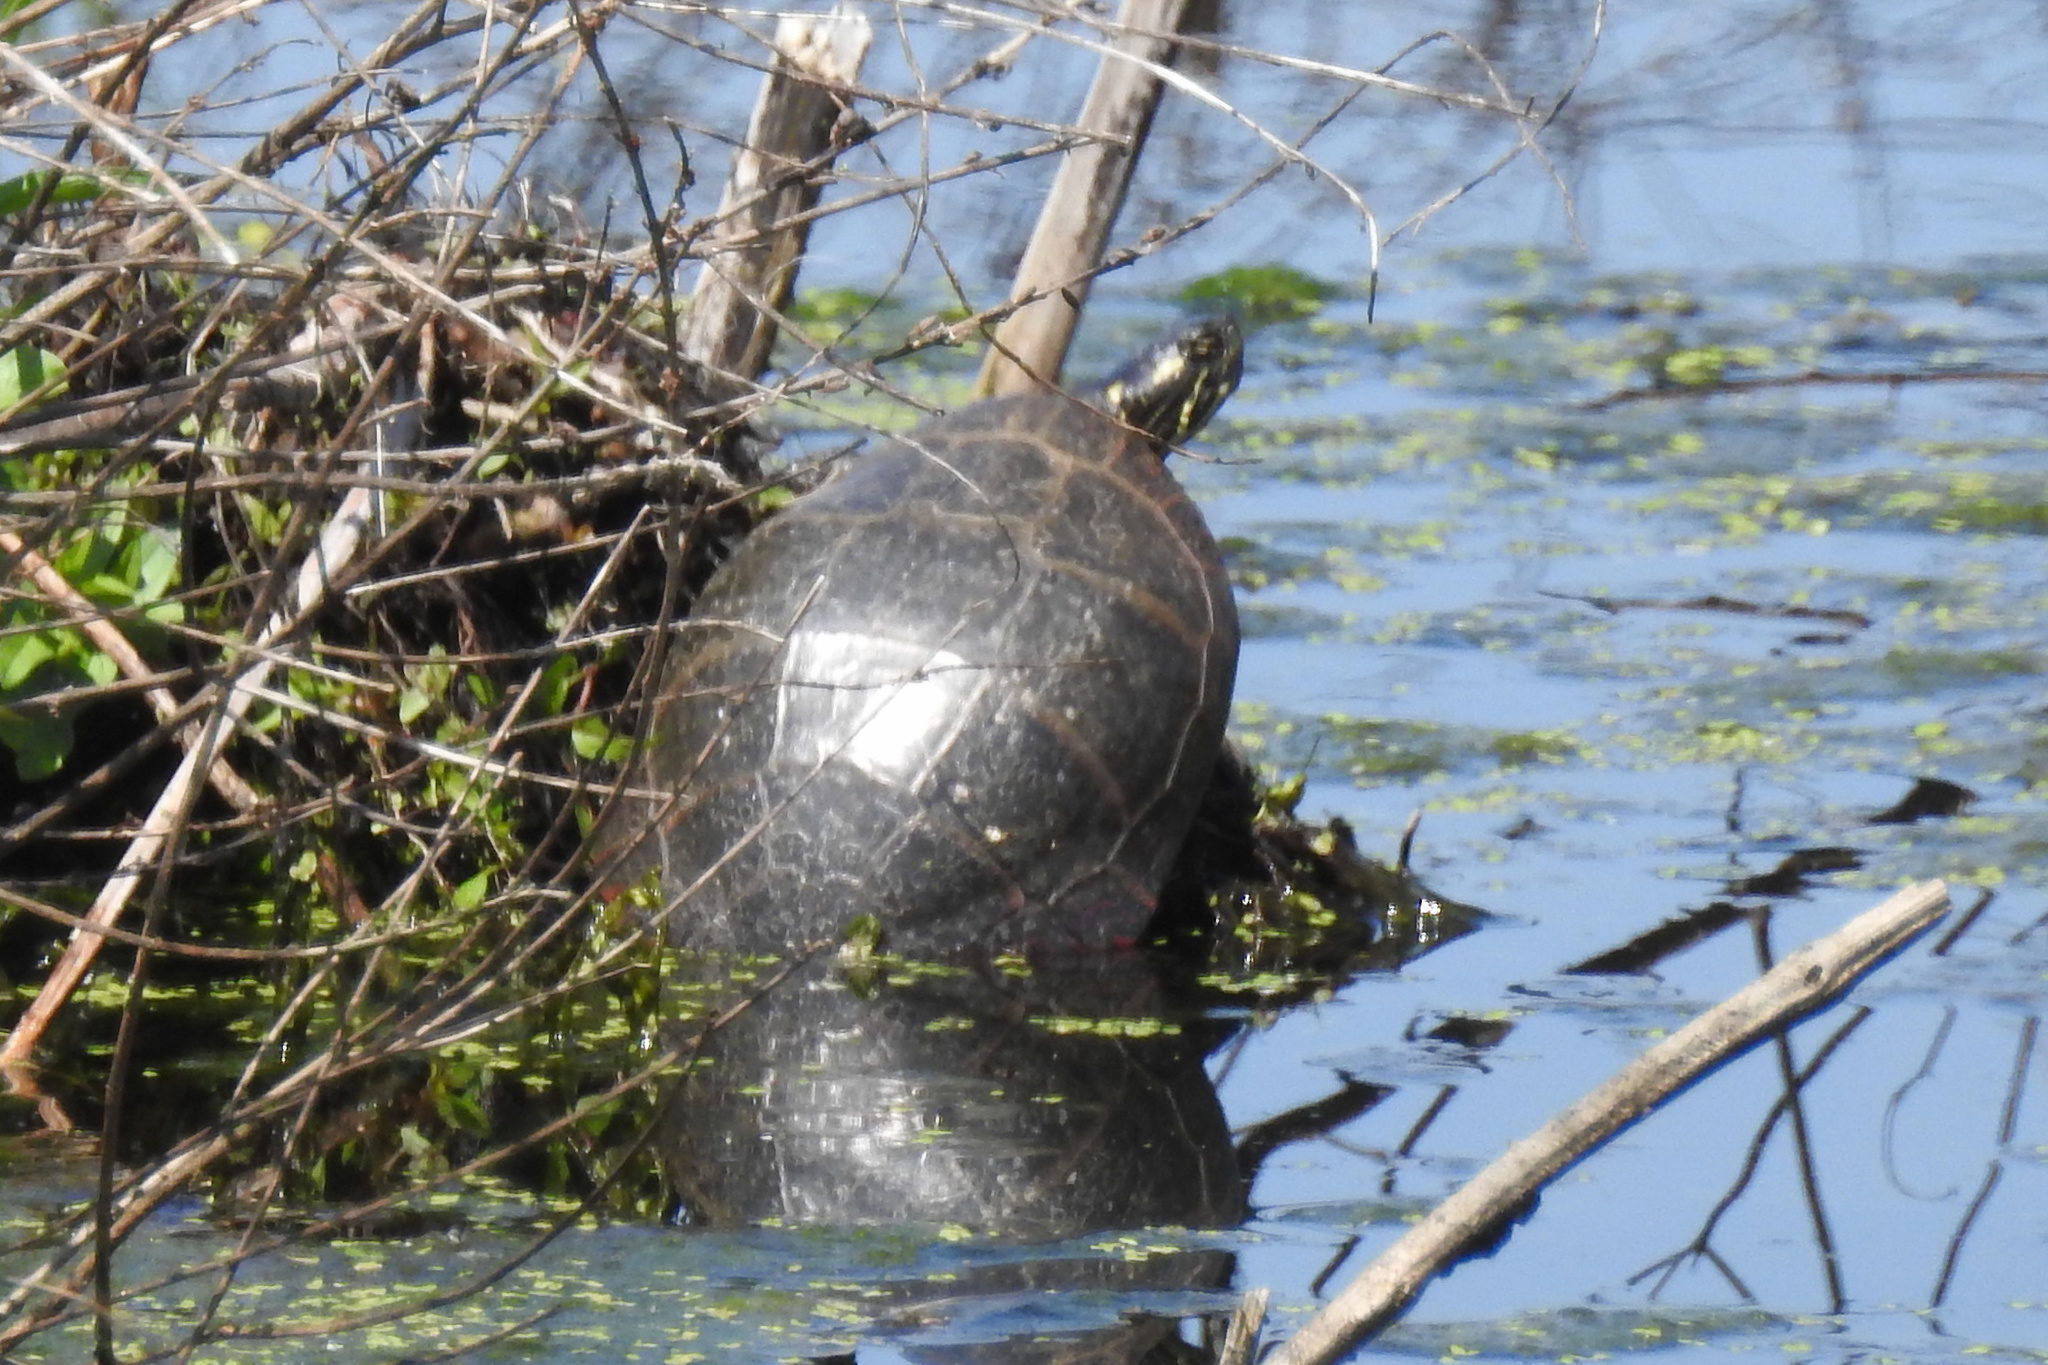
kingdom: Animalia
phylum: Chordata
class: Testudines
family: Emydidae
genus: Chrysemys
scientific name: Chrysemys picta
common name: Painted turtle
